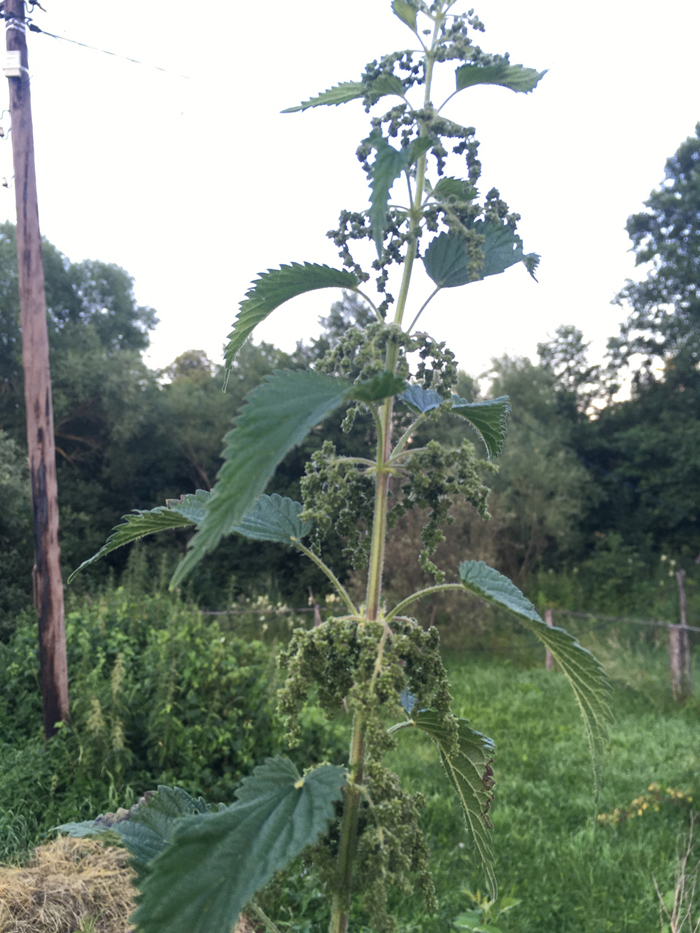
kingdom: Plantae
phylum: Tracheophyta
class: Magnoliopsida
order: Rosales
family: Urticaceae
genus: Urtica
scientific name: Urtica dioica
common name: Common nettle
